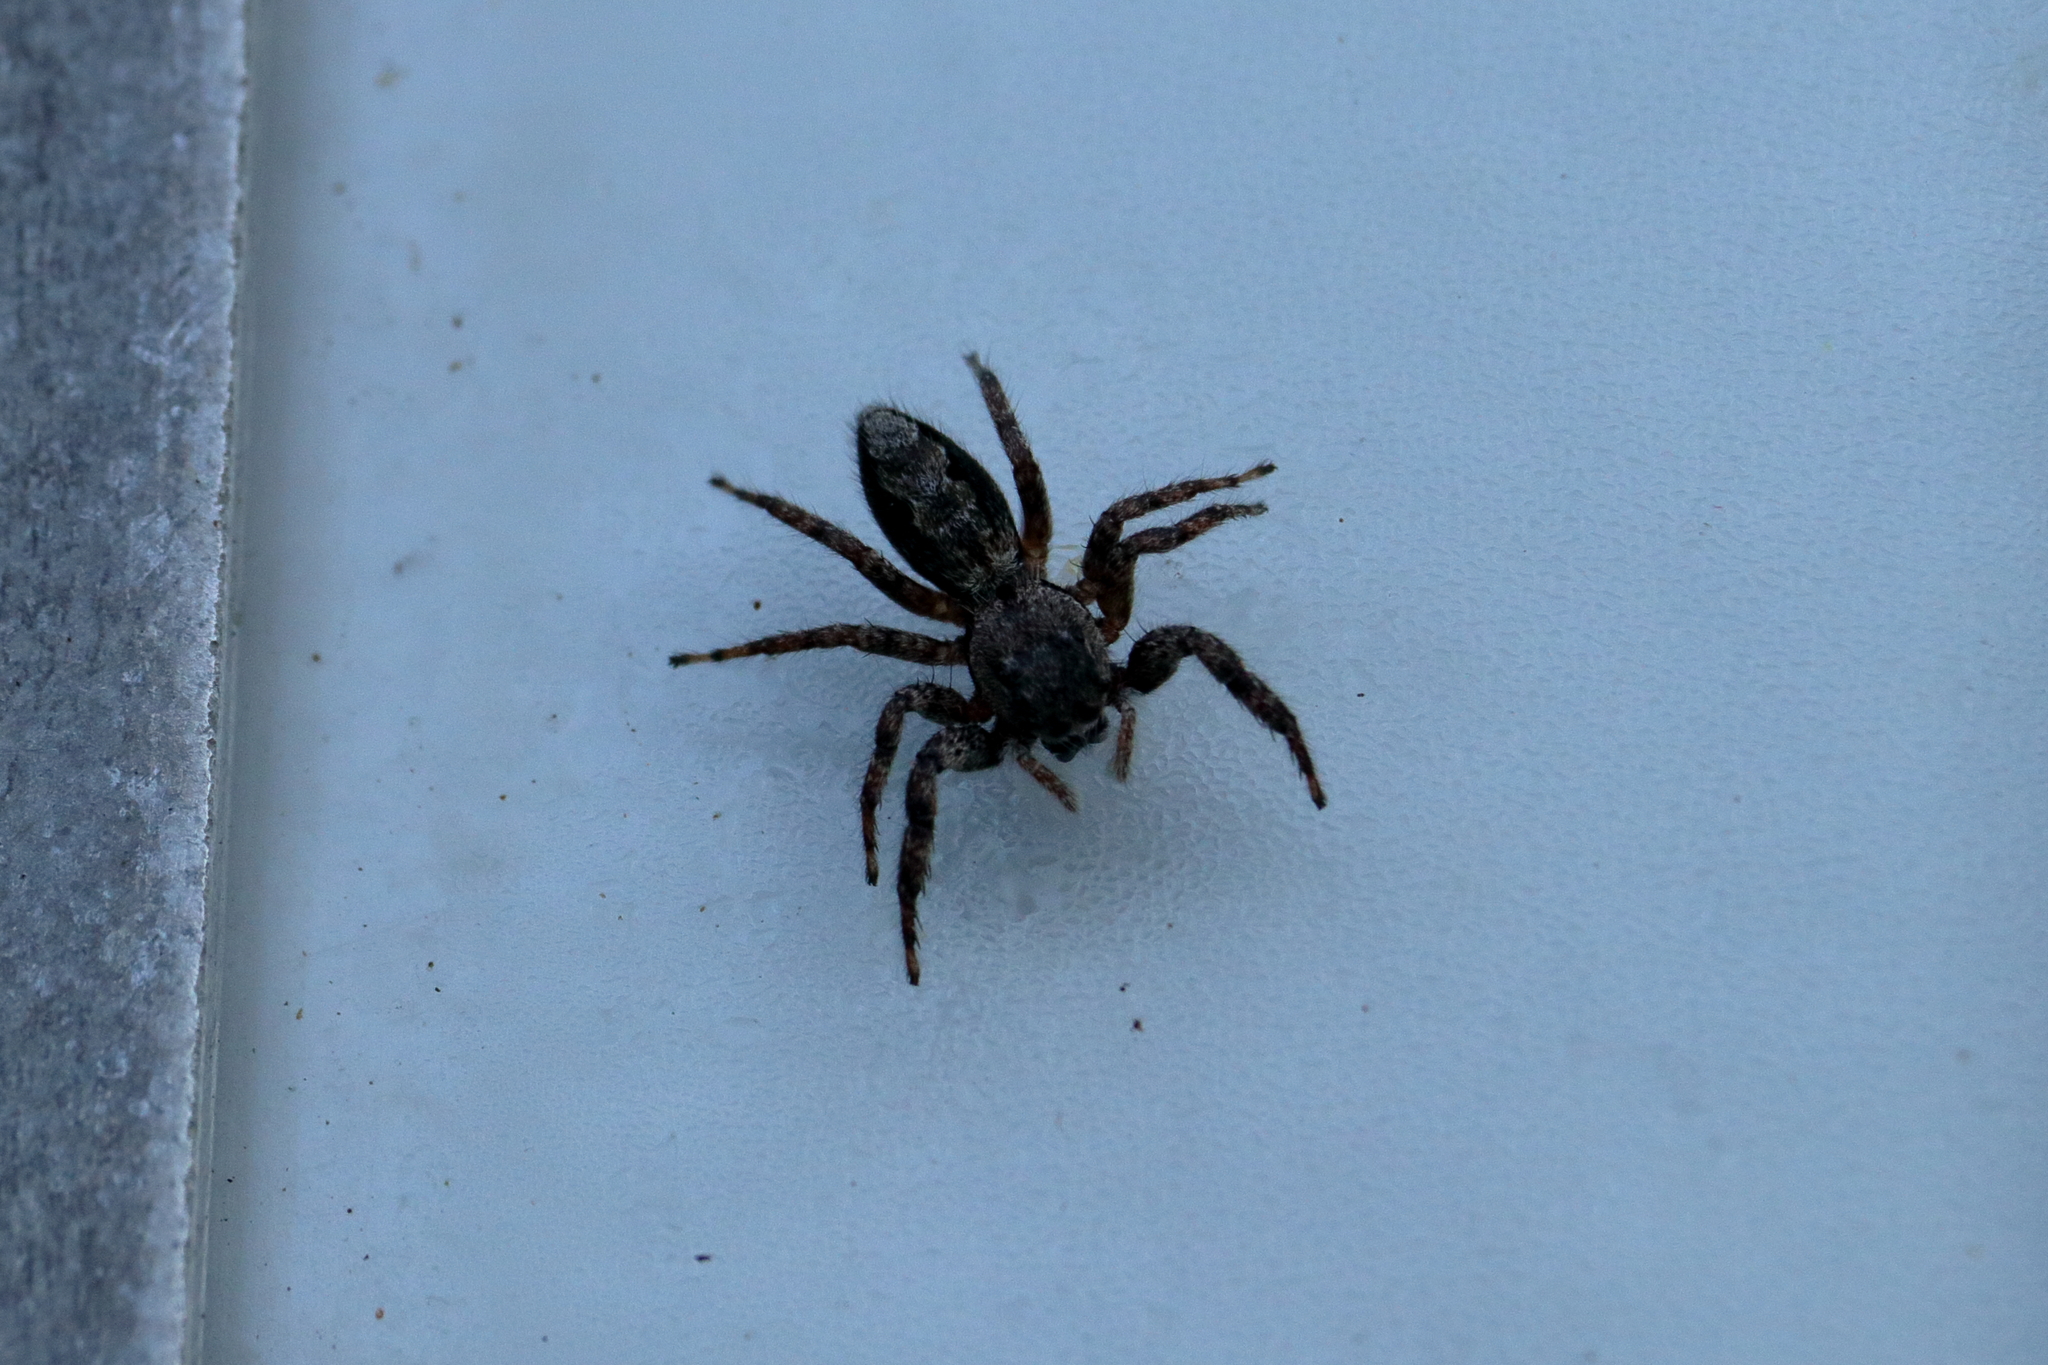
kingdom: Animalia
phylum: Arthropoda
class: Arachnida
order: Araneae
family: Salticidae
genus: Platycryptus
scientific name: Platycryptus undatus
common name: Tan jumping spider
